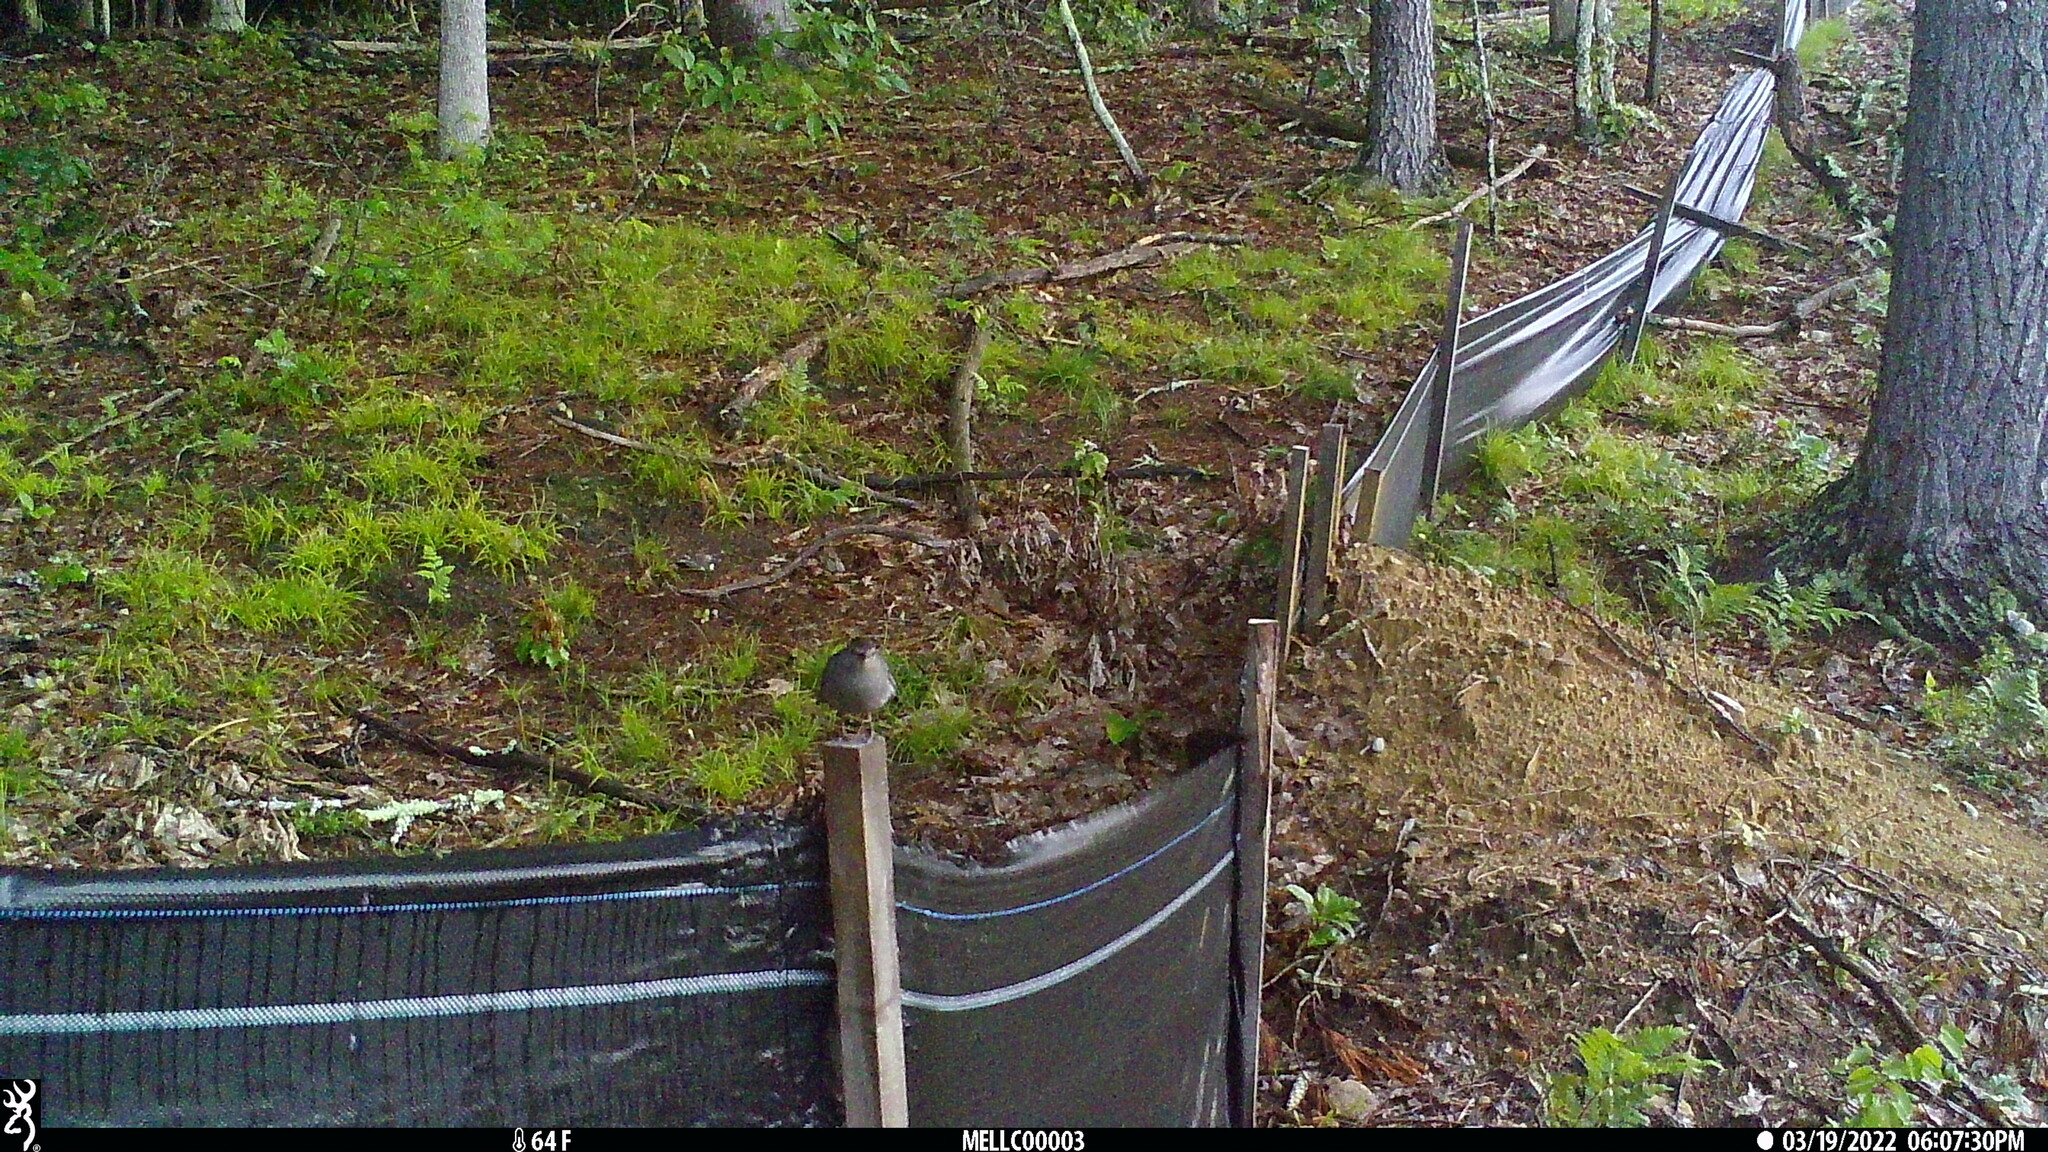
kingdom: Animalia
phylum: Chordata
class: Aves
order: Passeriformes
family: Mimidae
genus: Dumetella
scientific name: Dumetella carolinensis
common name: Gray catbird
